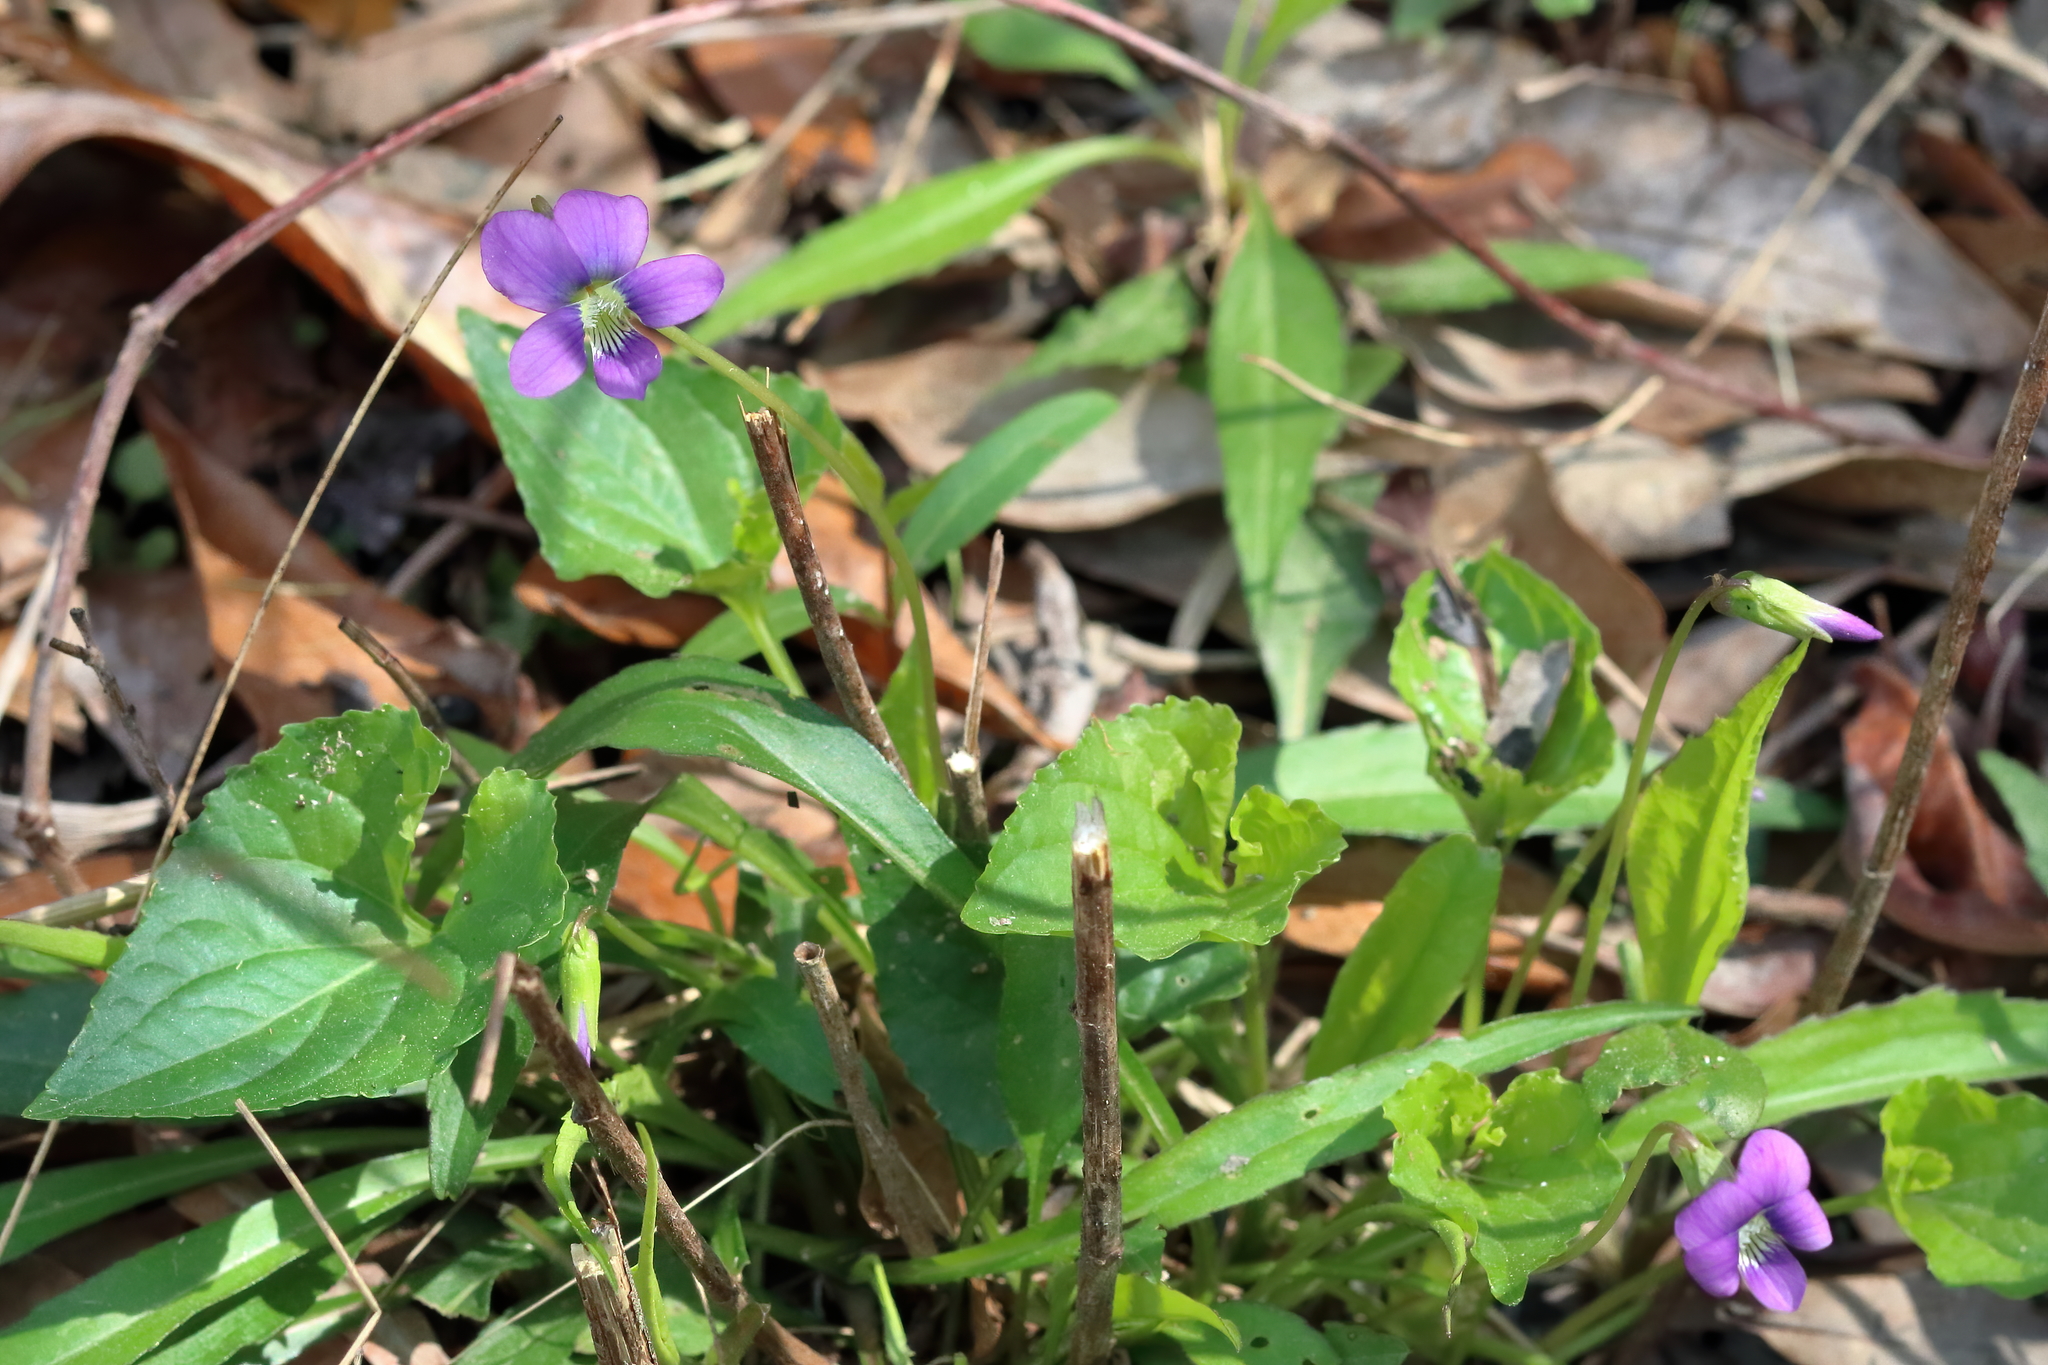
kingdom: Plantae
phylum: Tracheophyta
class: Magnoliopsida
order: Malpighiales
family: Violaceae
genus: Viola
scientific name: Viola sororia
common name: Dooryard violet
